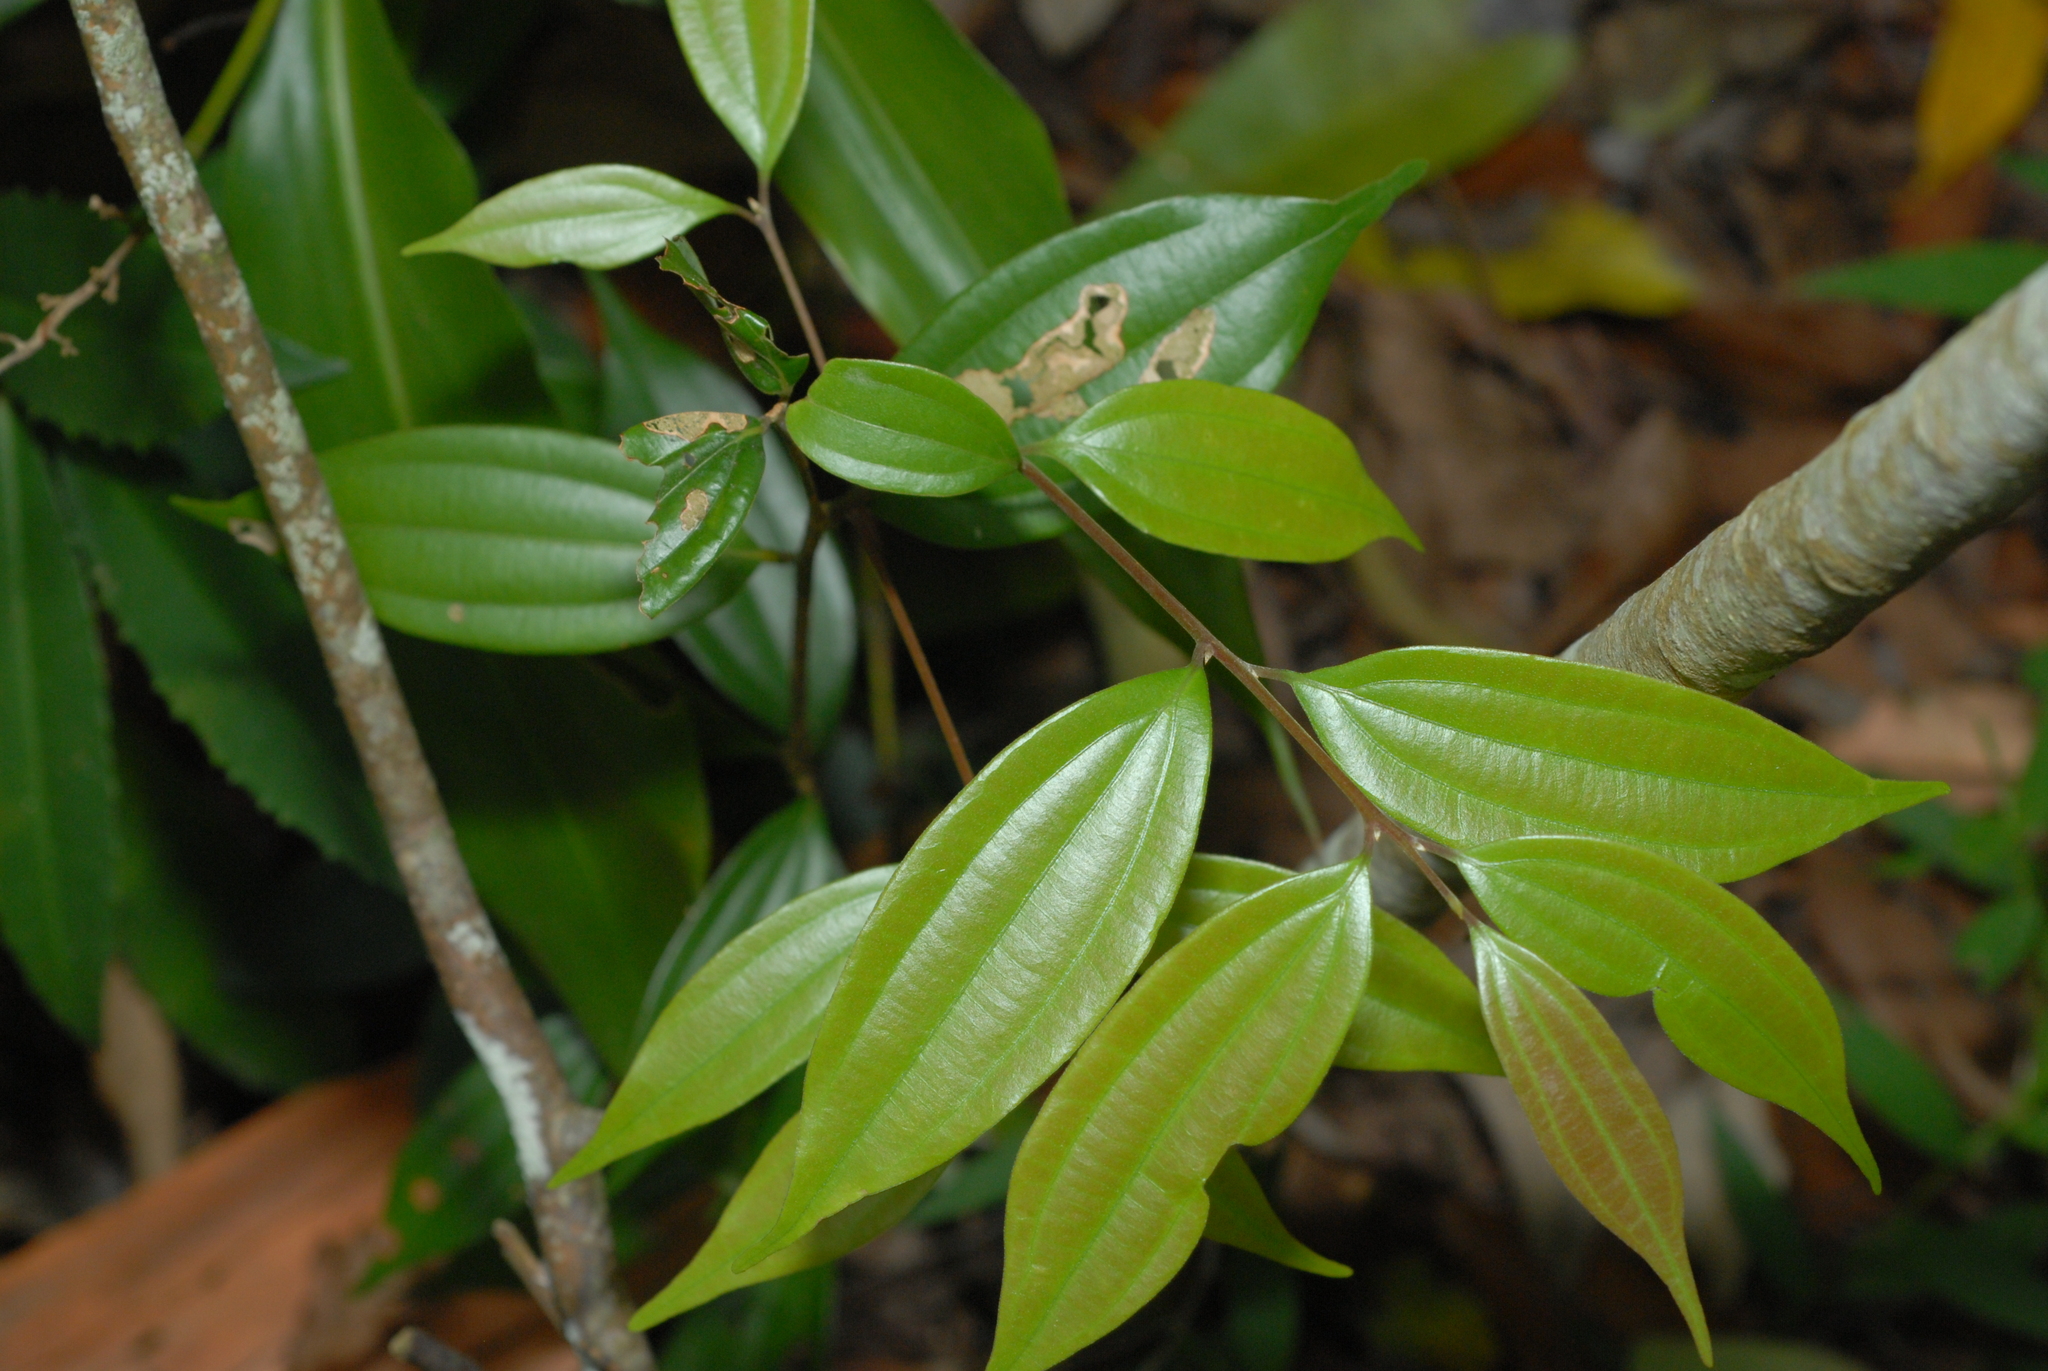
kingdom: Plantae
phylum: Tracheophyta
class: Magnoliopsida
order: Laurales
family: Lauraceae
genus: Cinnamomum
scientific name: Cinnamomum subavenium
